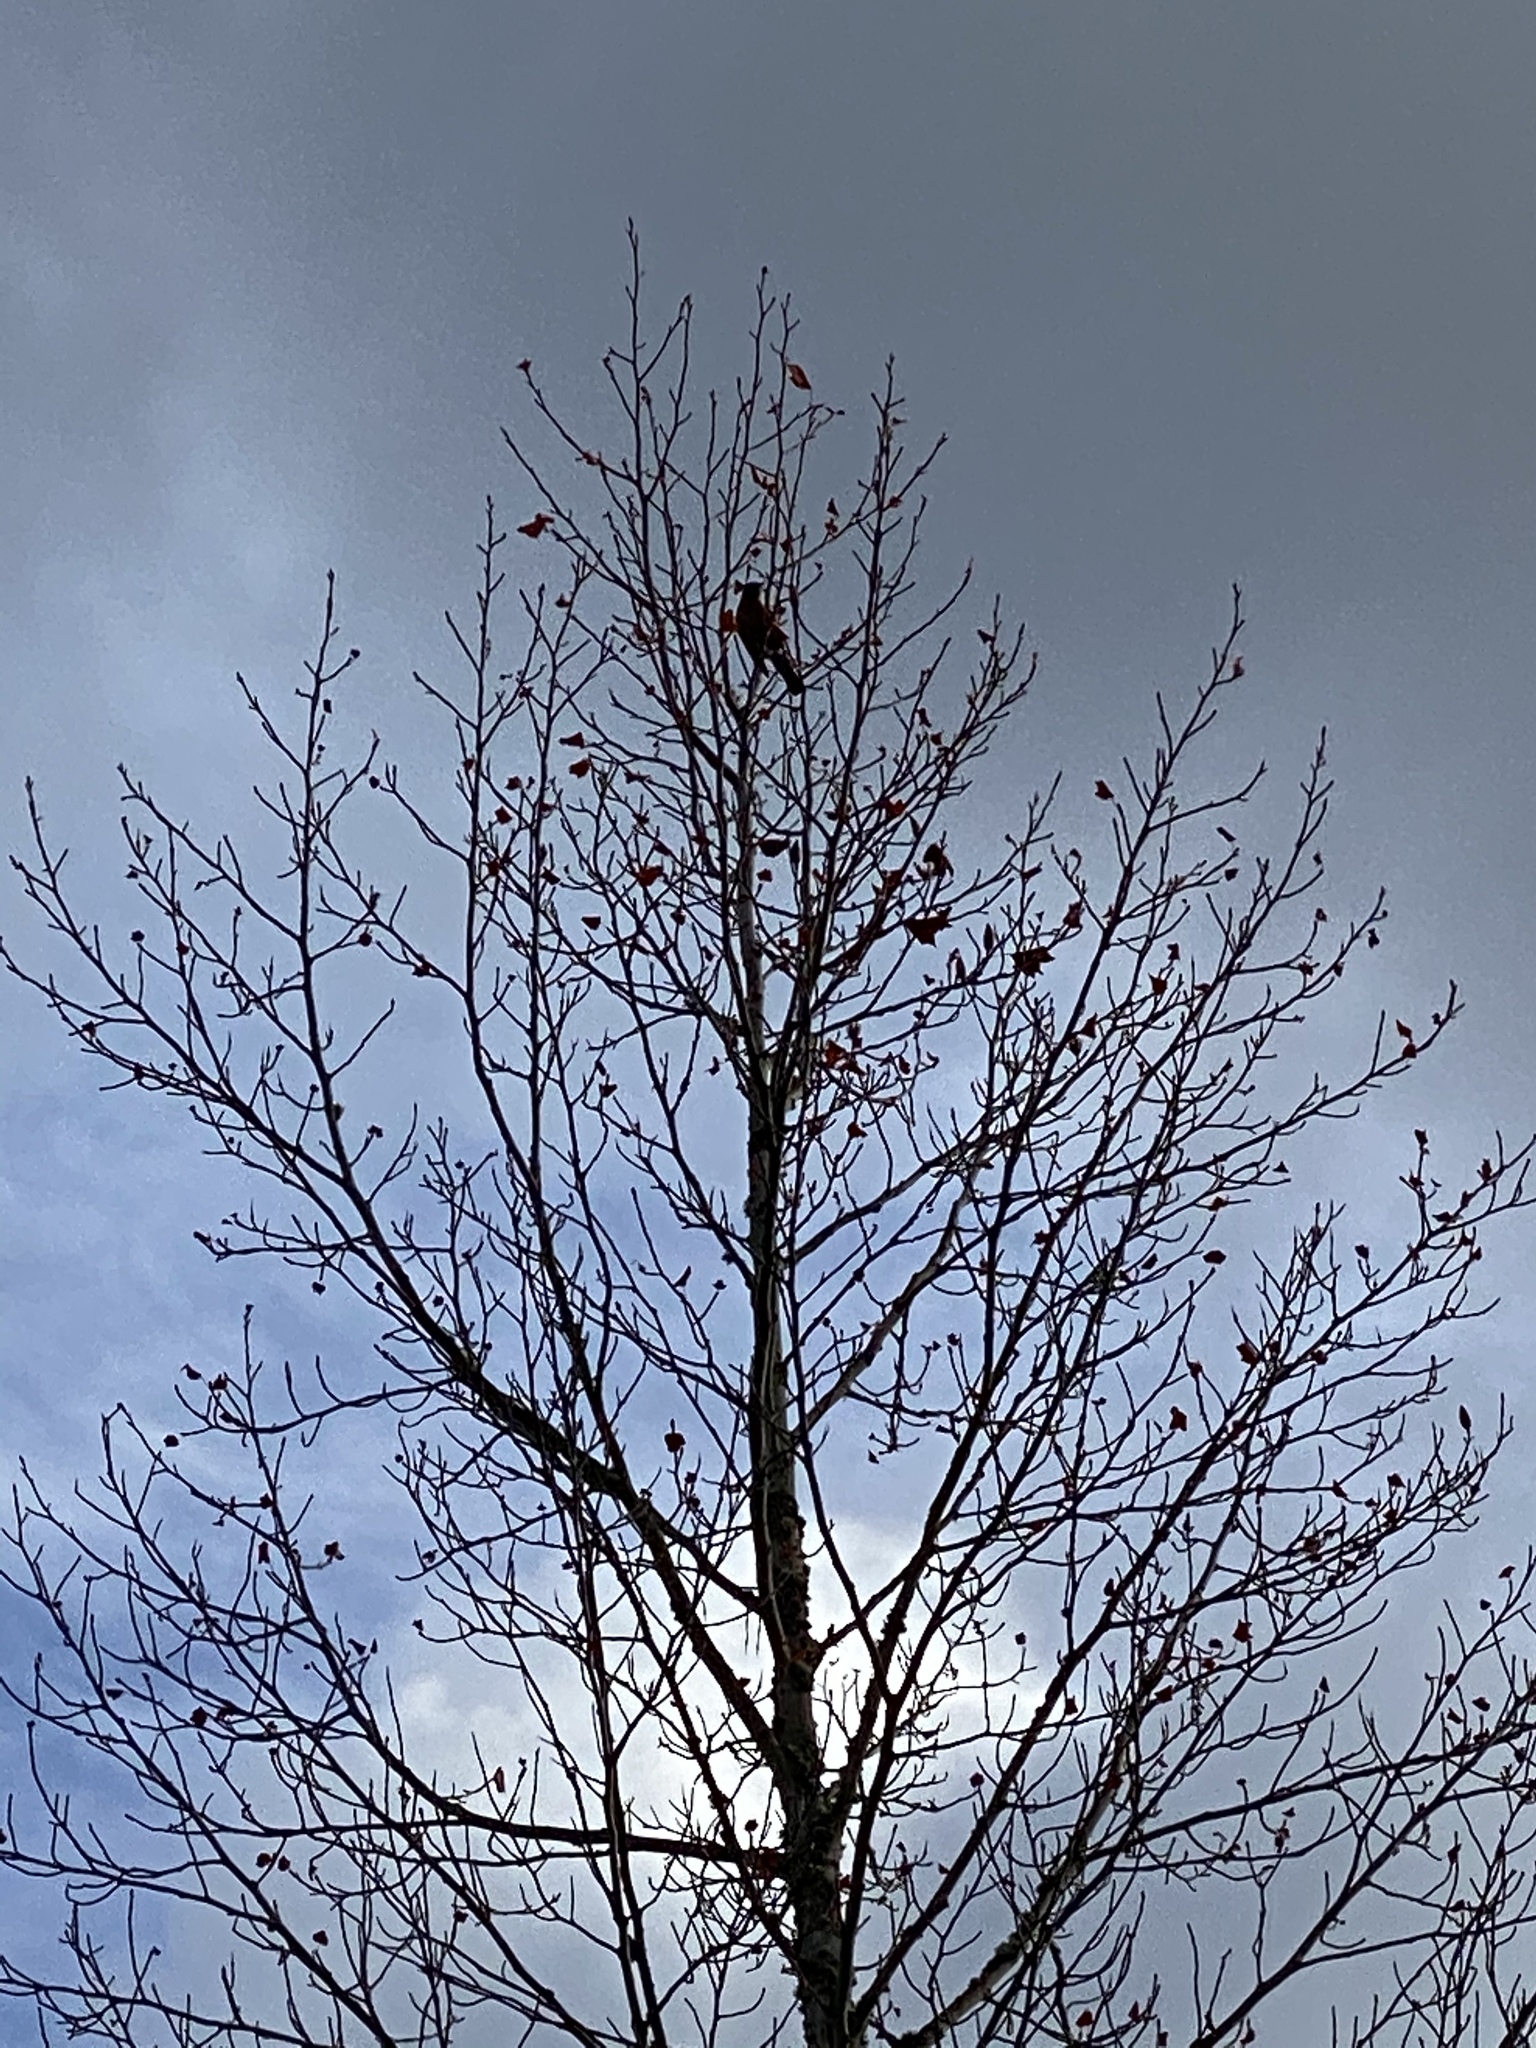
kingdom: Animalia
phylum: Chordata
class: Aves
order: Passeriformes
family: Turdidae
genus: Turdus
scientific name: Turdus migratorius
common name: American robin
